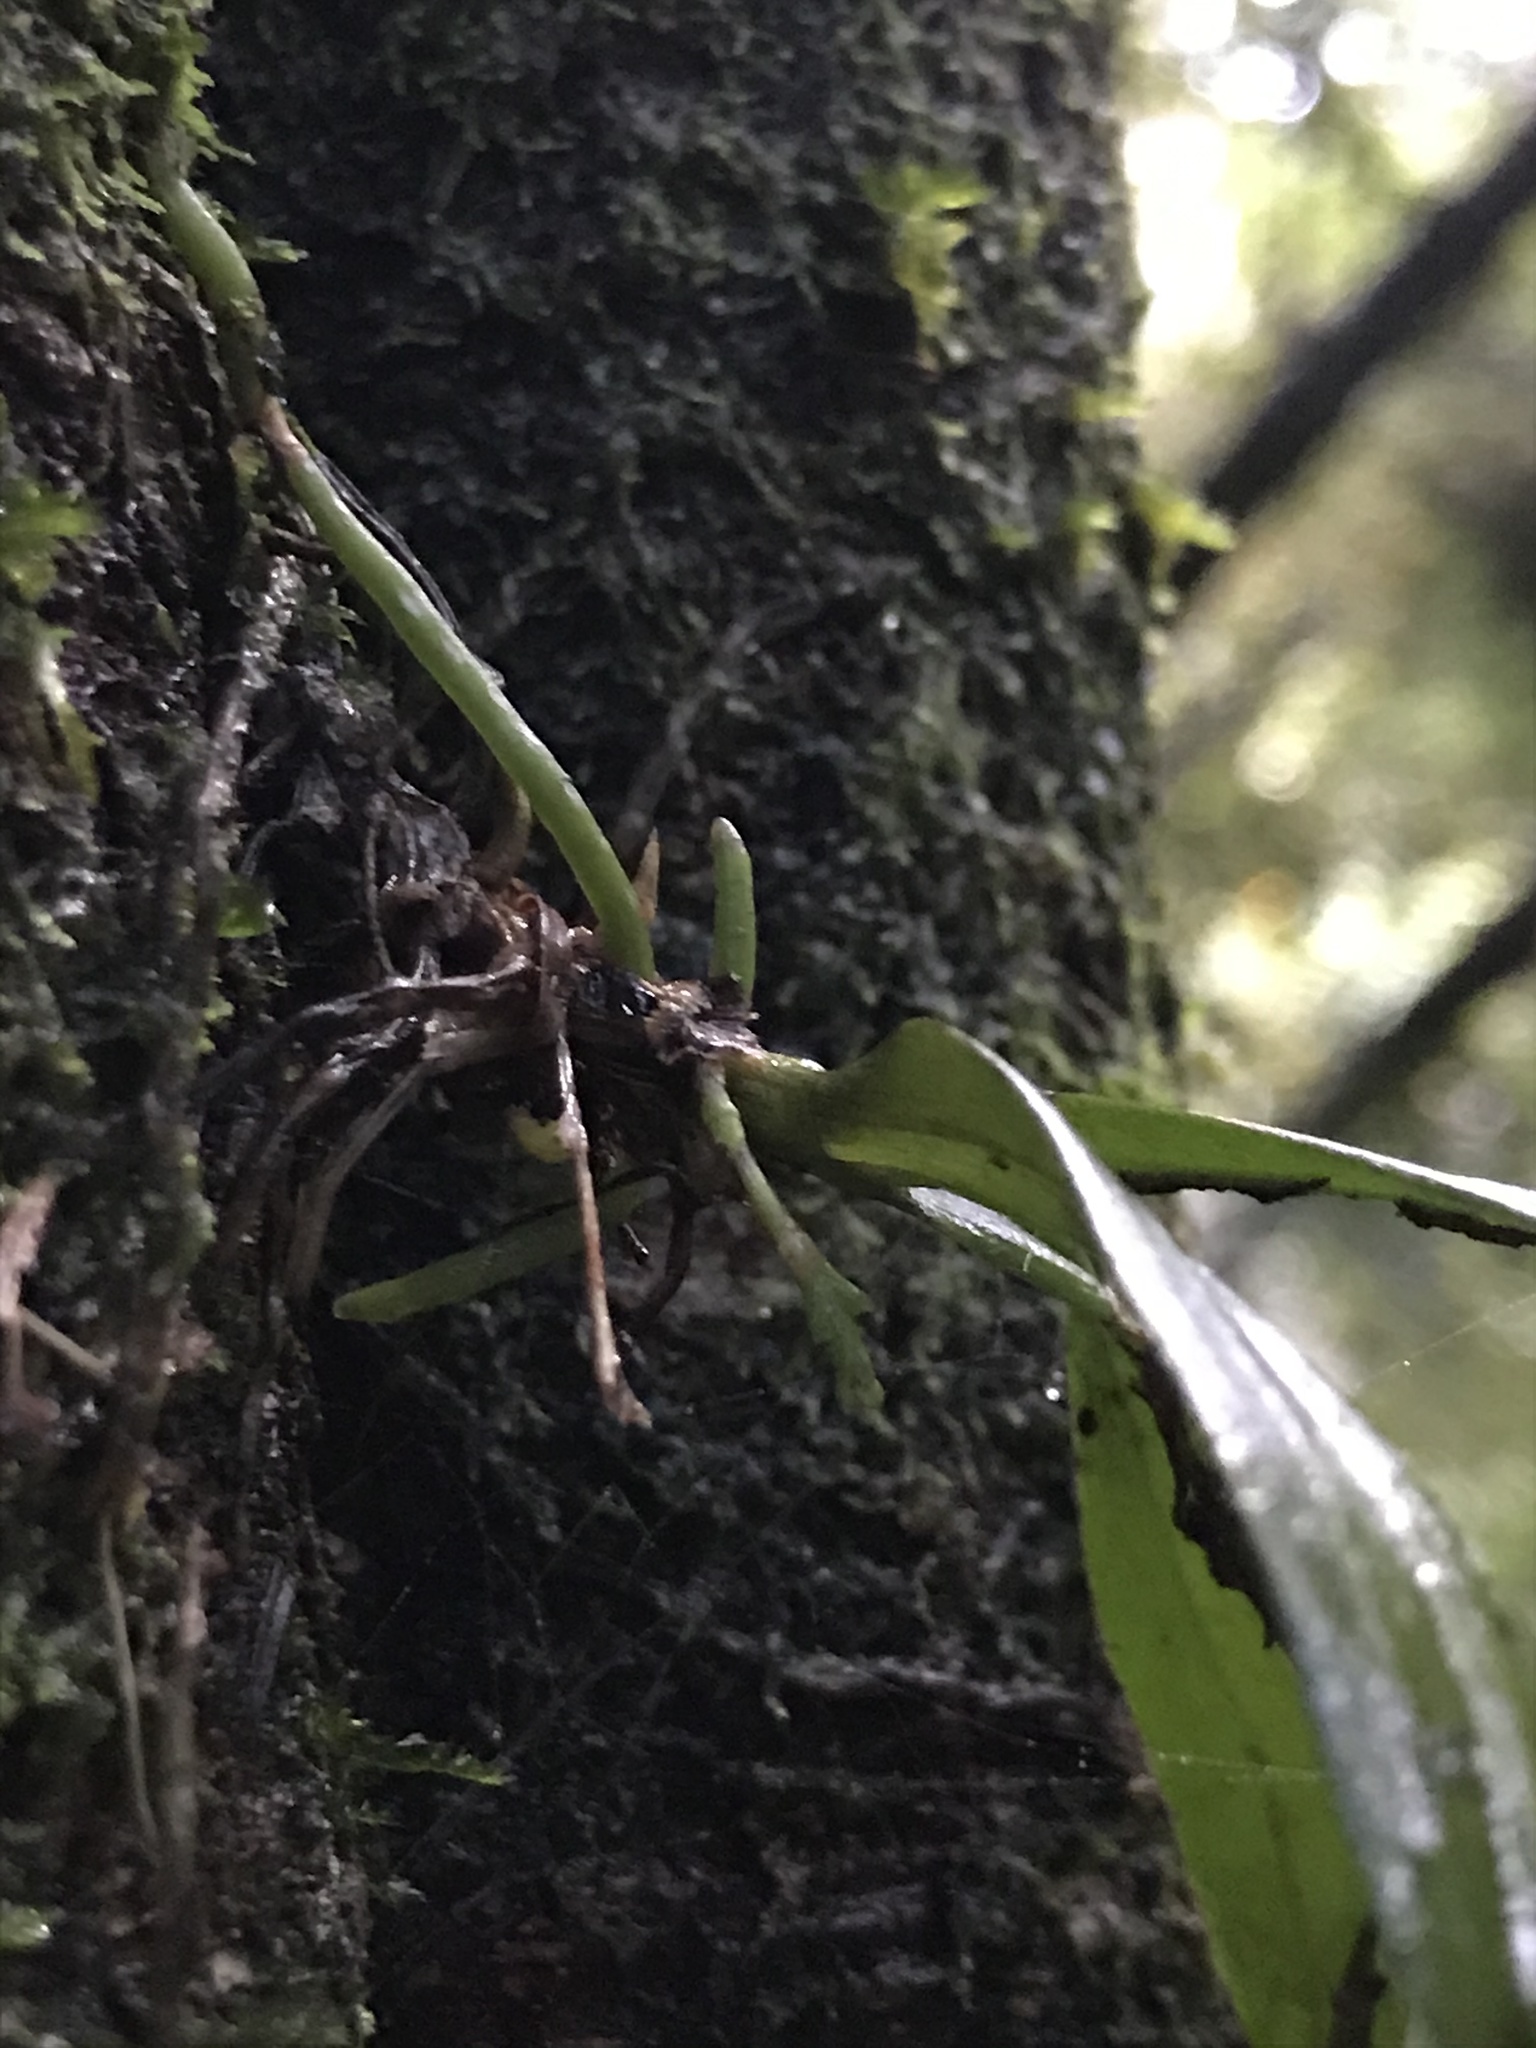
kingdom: Plantae
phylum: Tracheophyta
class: Liliopsida
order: Asparagales
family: Orchidaceae
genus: Drymoanthus
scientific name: Drymoanthus adversus
